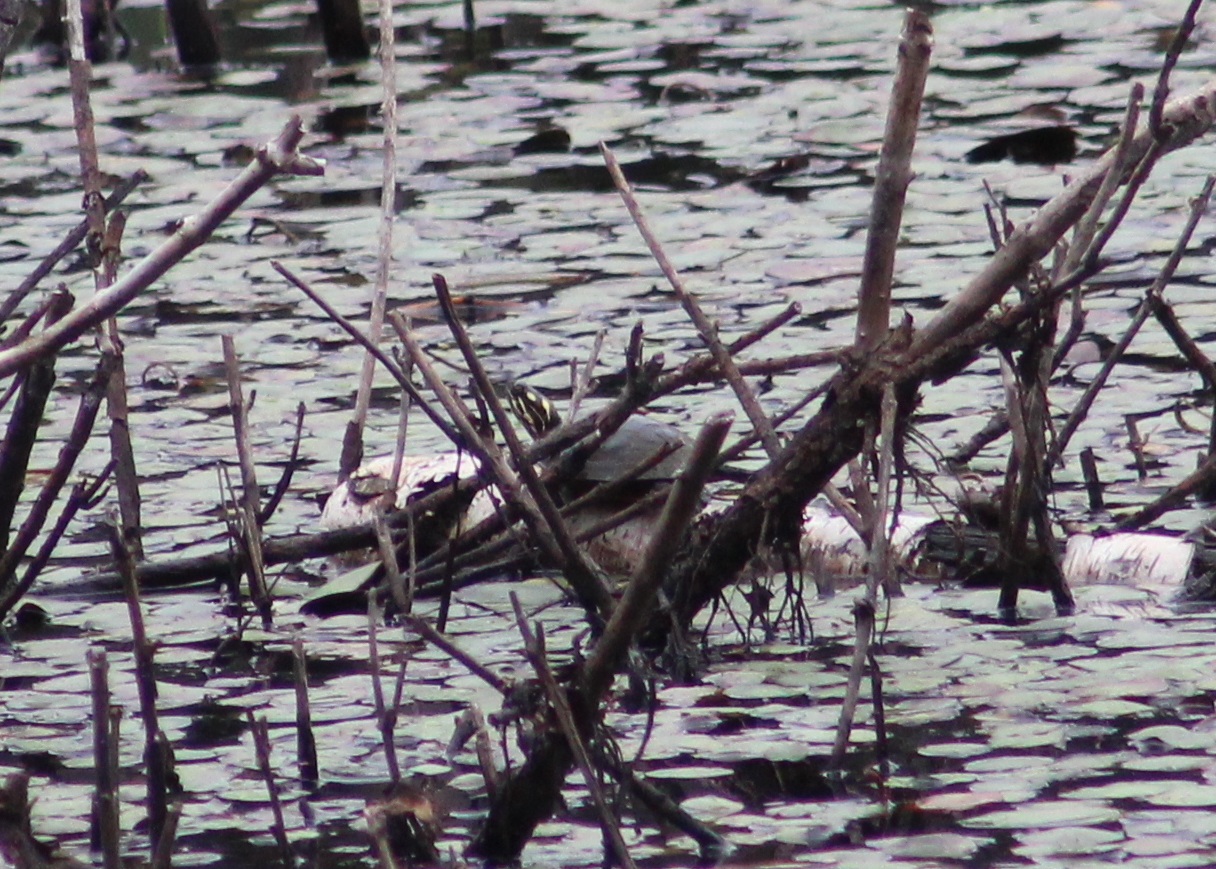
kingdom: Animalia
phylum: Chordata
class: Testudines
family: Emydidae
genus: Chrysemys
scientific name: Chrysemys picta
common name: Painted turtle
